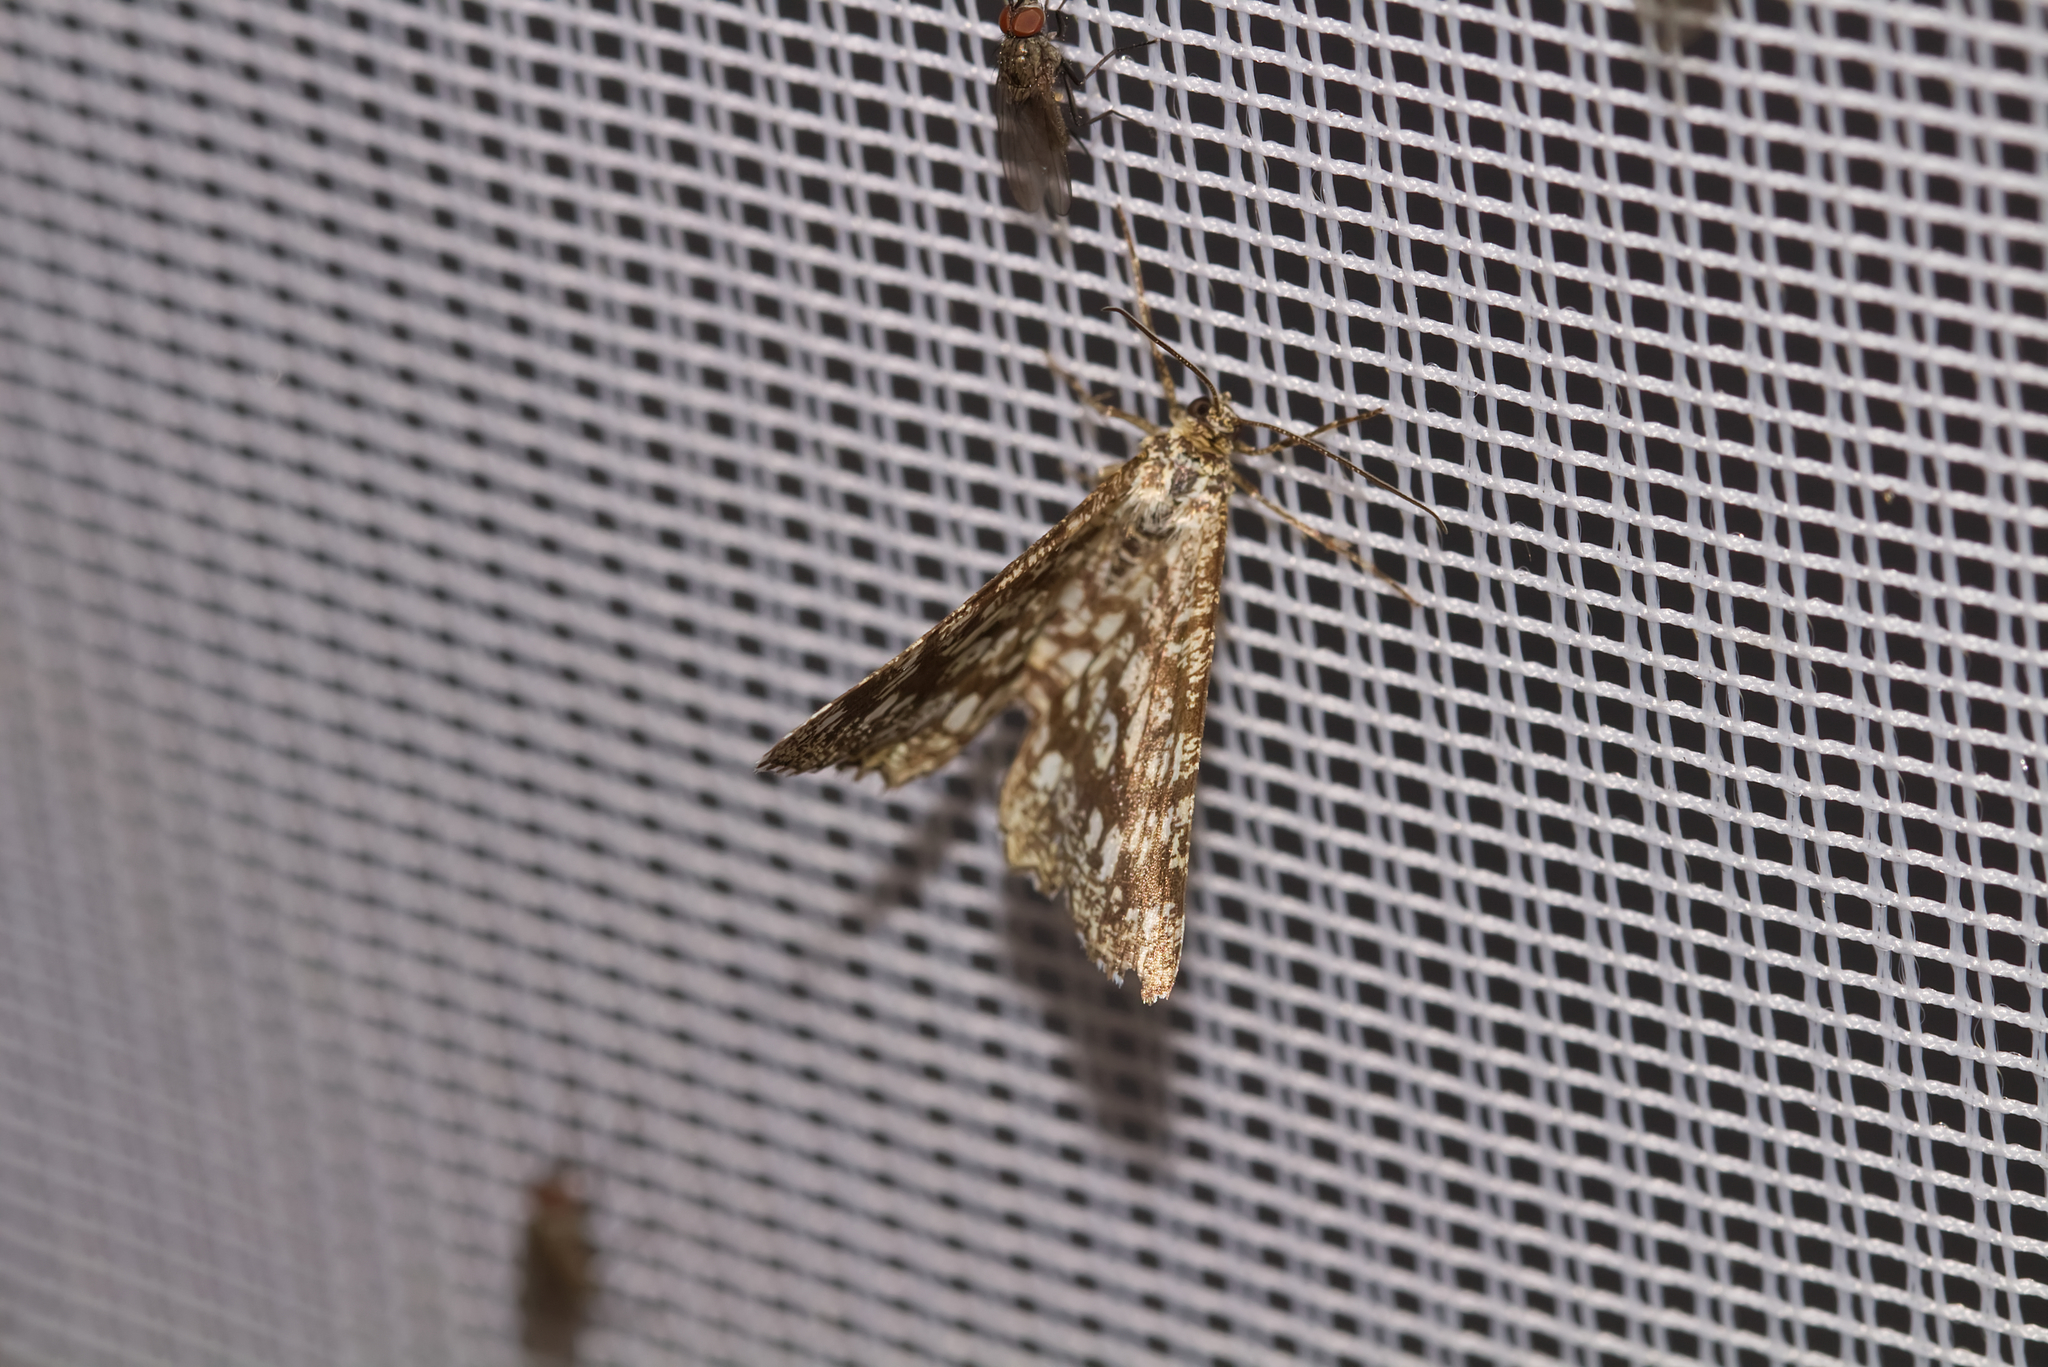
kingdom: Animalia
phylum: Arthropoda
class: Insecta
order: Lepidoptera
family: Geometridae
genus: Chiasmia
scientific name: Chiasmia clathrata
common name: Latticed heath
